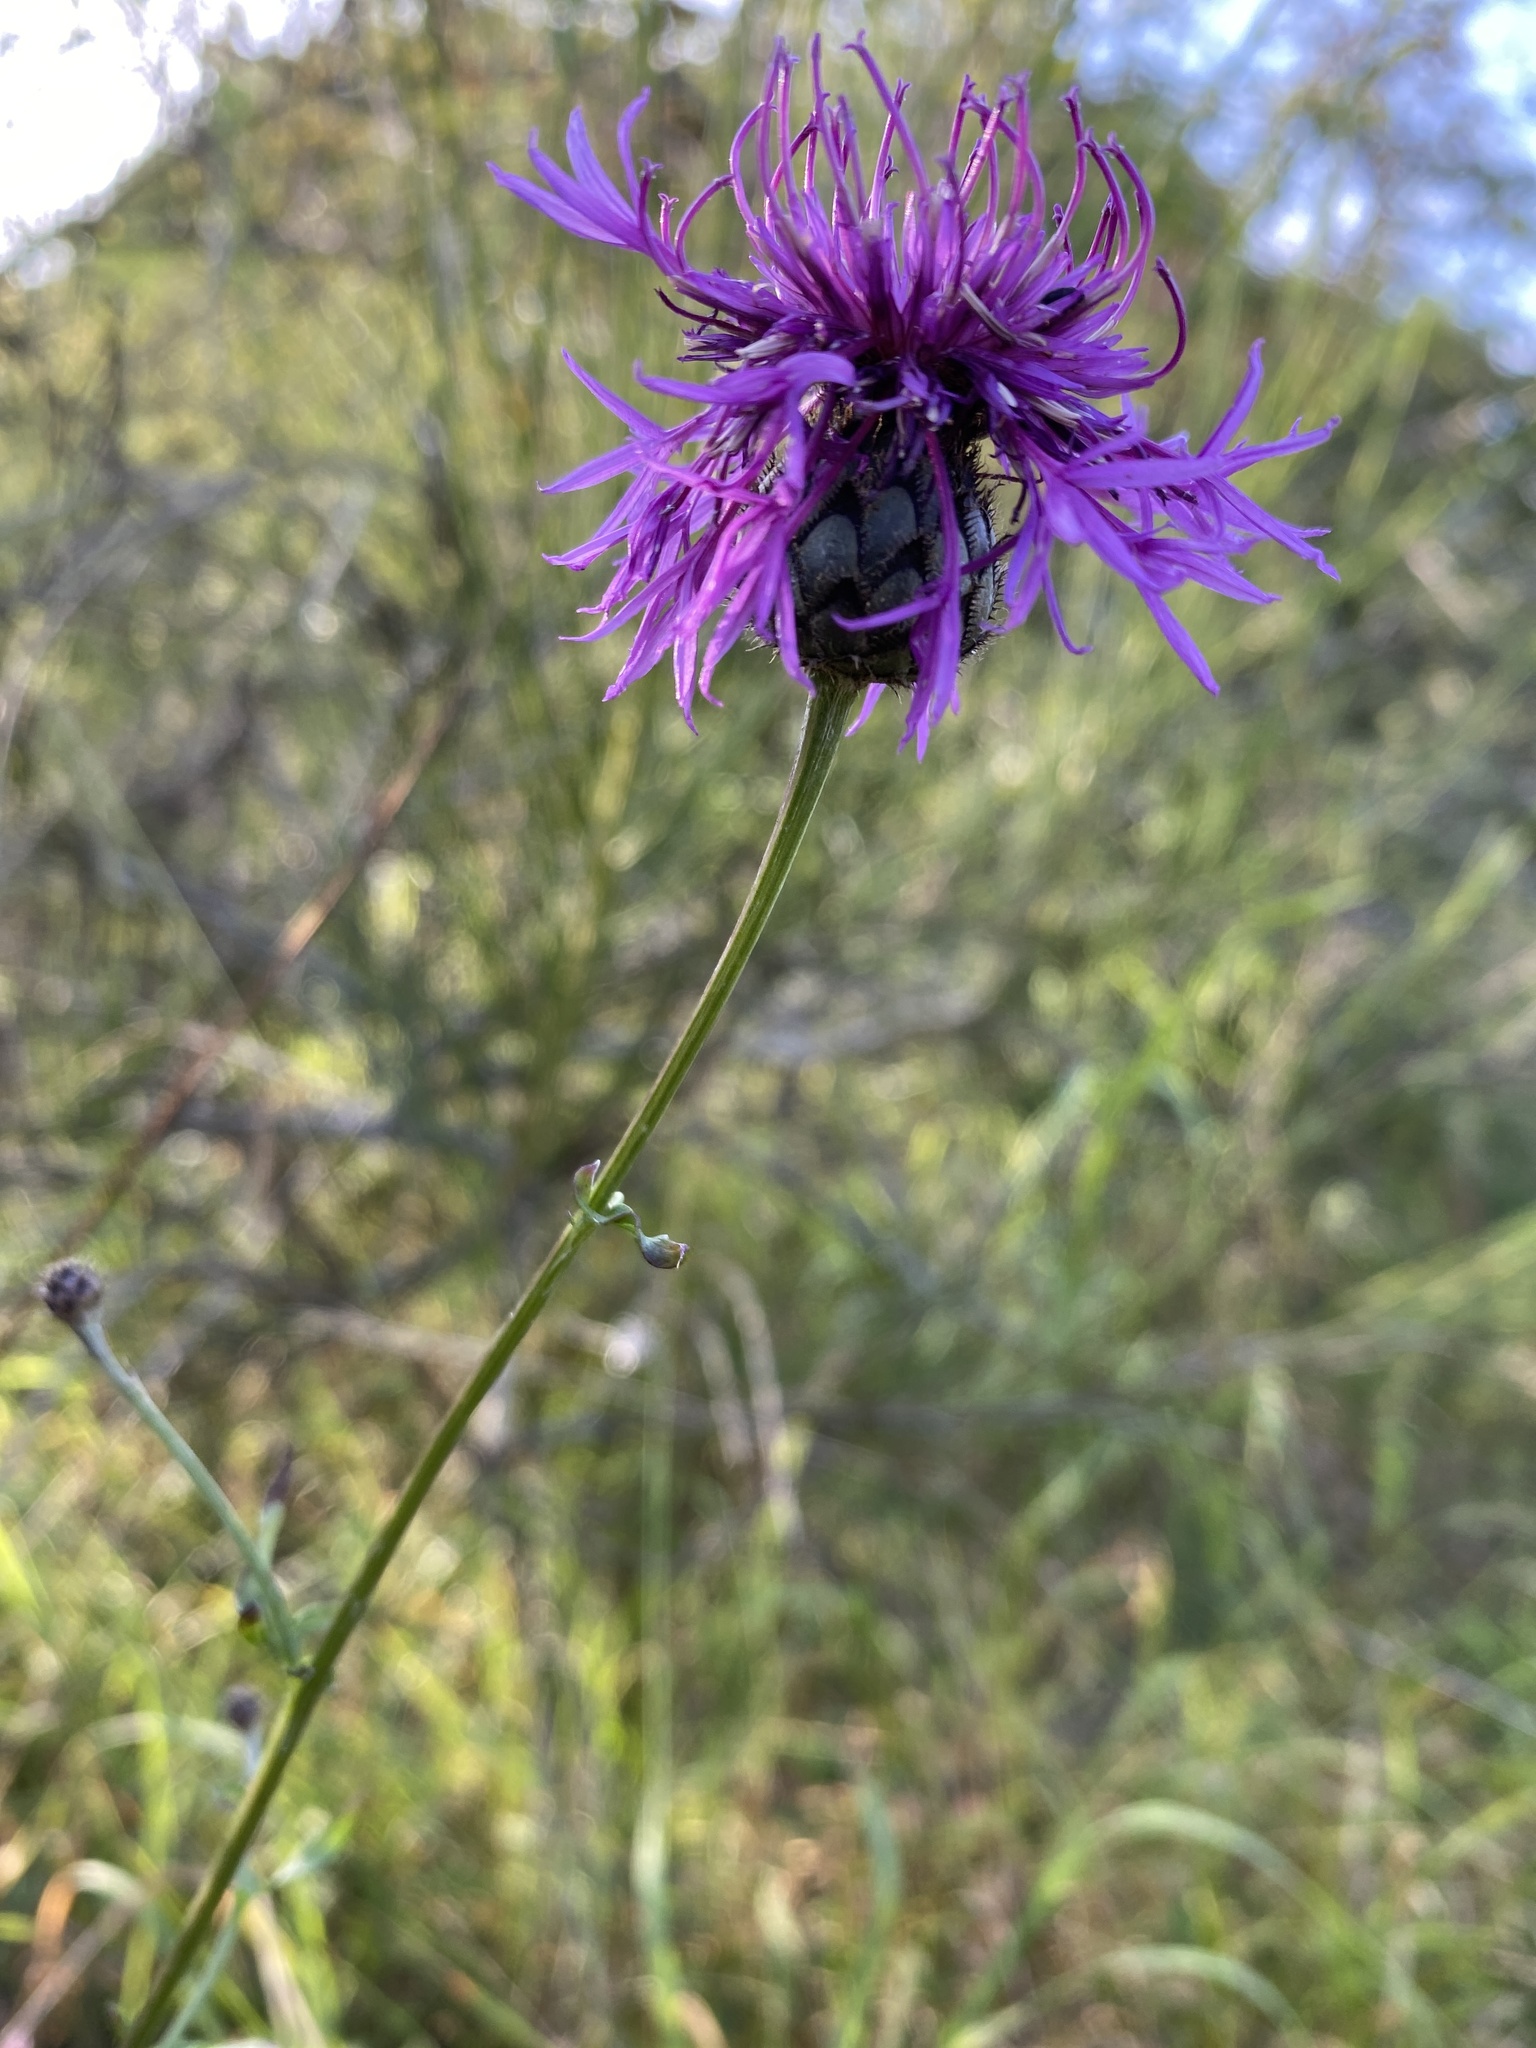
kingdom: Plantae
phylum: Tracheophyta
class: Magnoliopsida
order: Asterales
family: Asteraceae
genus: Centaurea
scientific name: Centaurea scabiosa
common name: Greater knapweed
